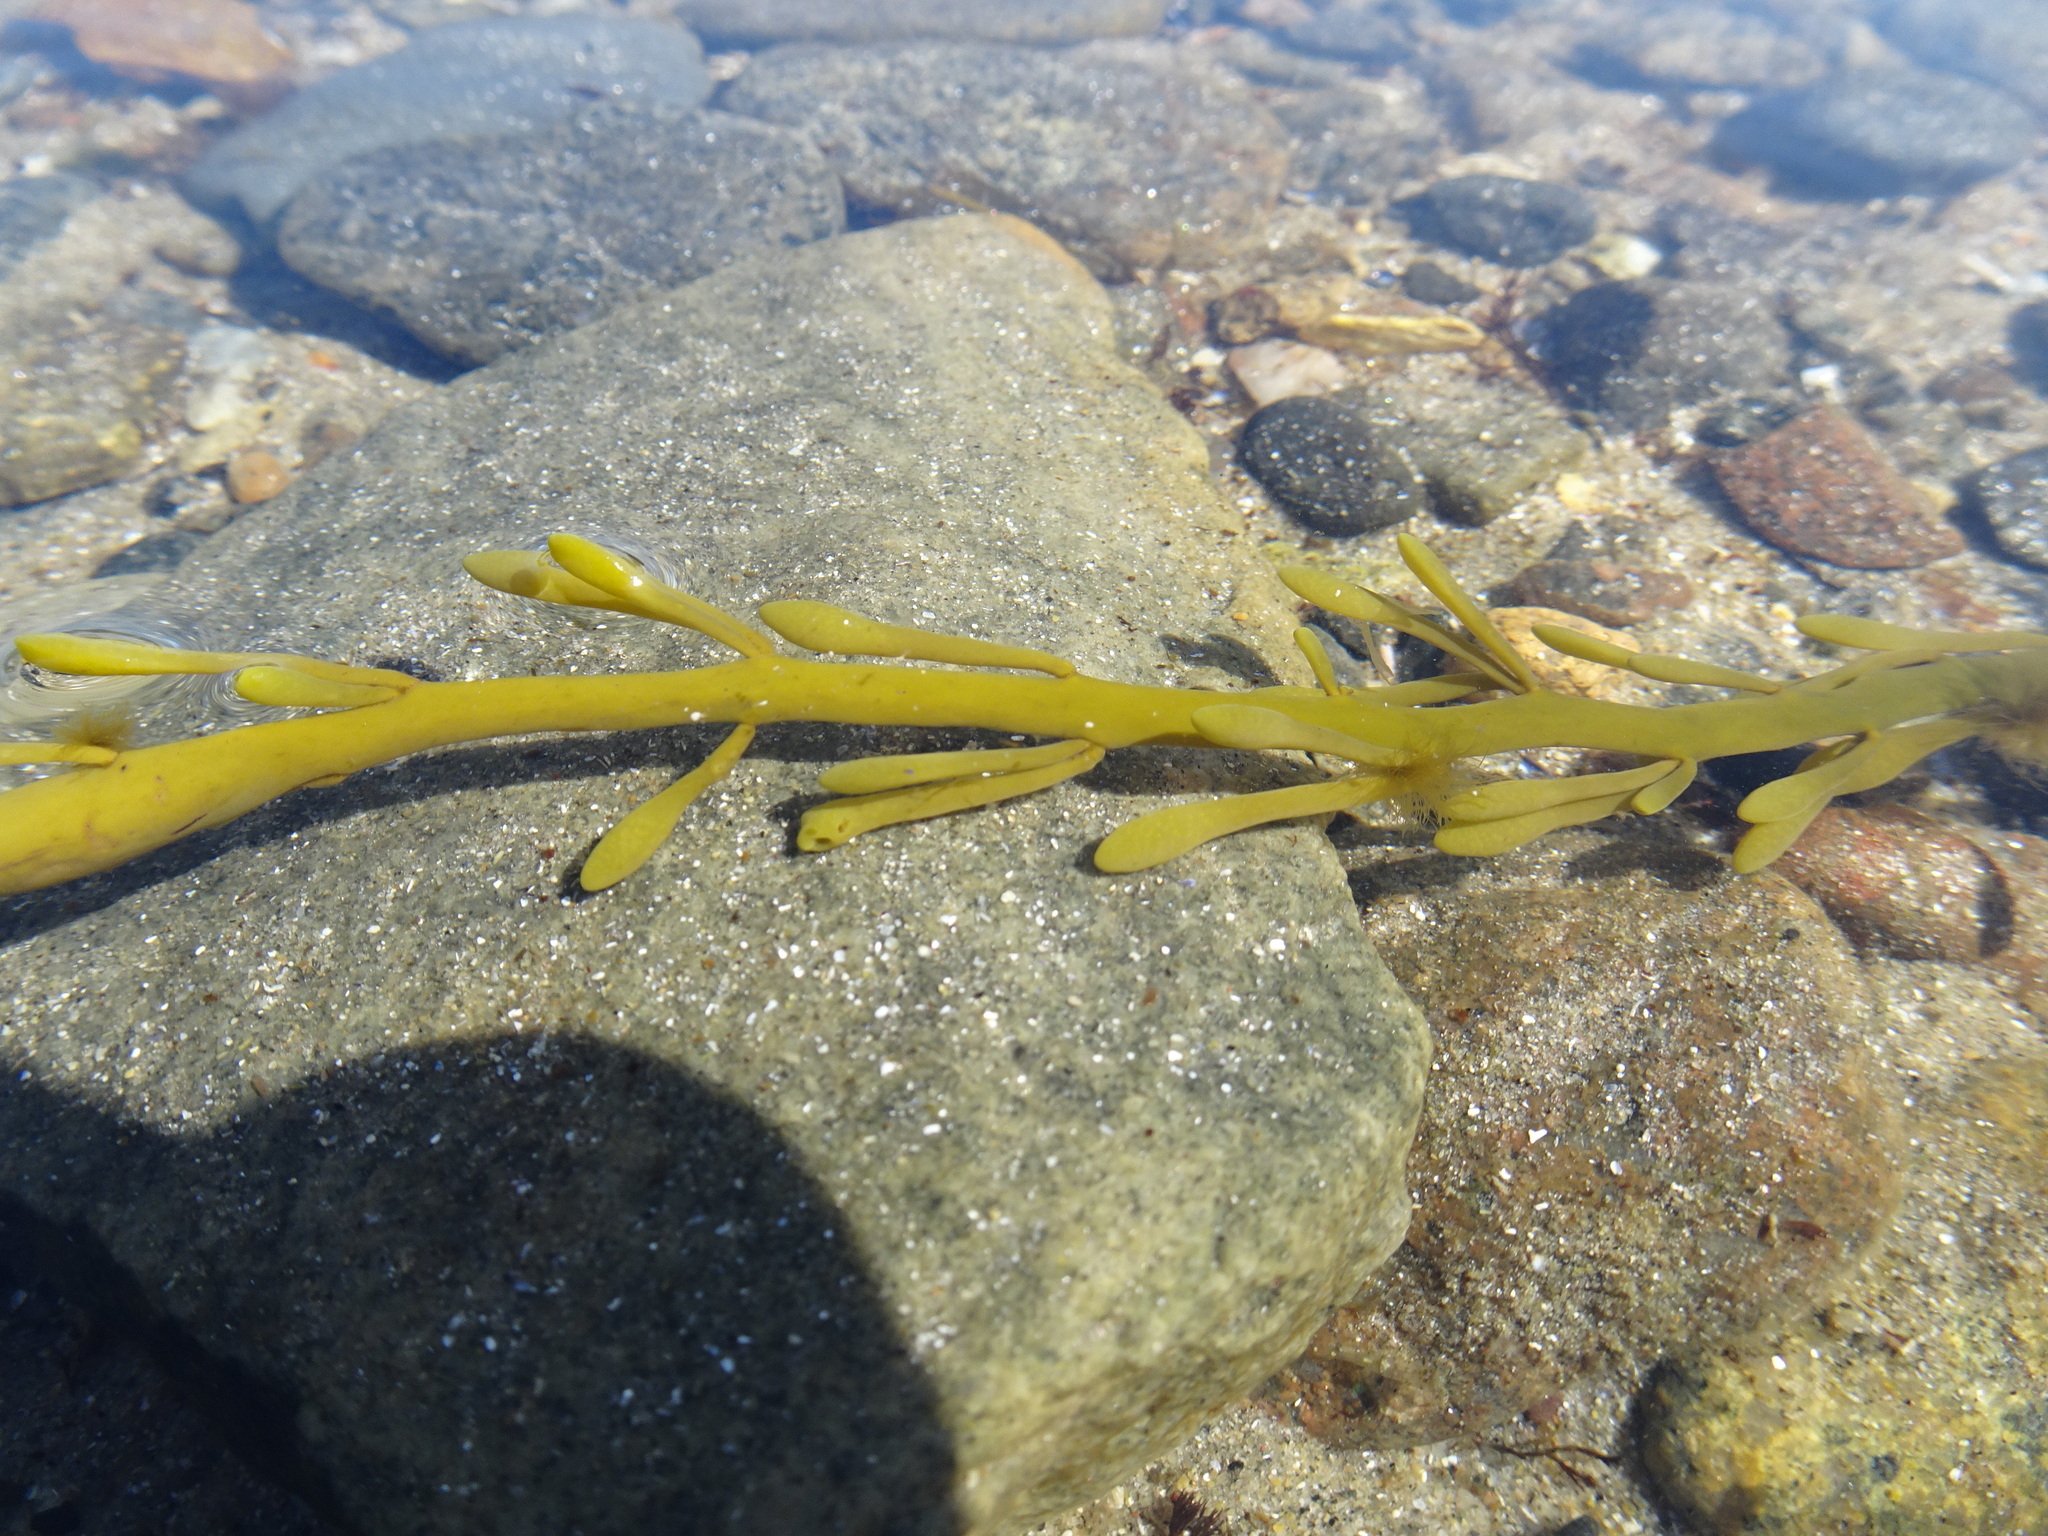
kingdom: Chromista
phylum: Ochrophyta
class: Phaeophyceae
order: Fucales
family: Fucaceae
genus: Ascophyllum
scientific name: Ascophyllum nodosum
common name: Knotted wrack
